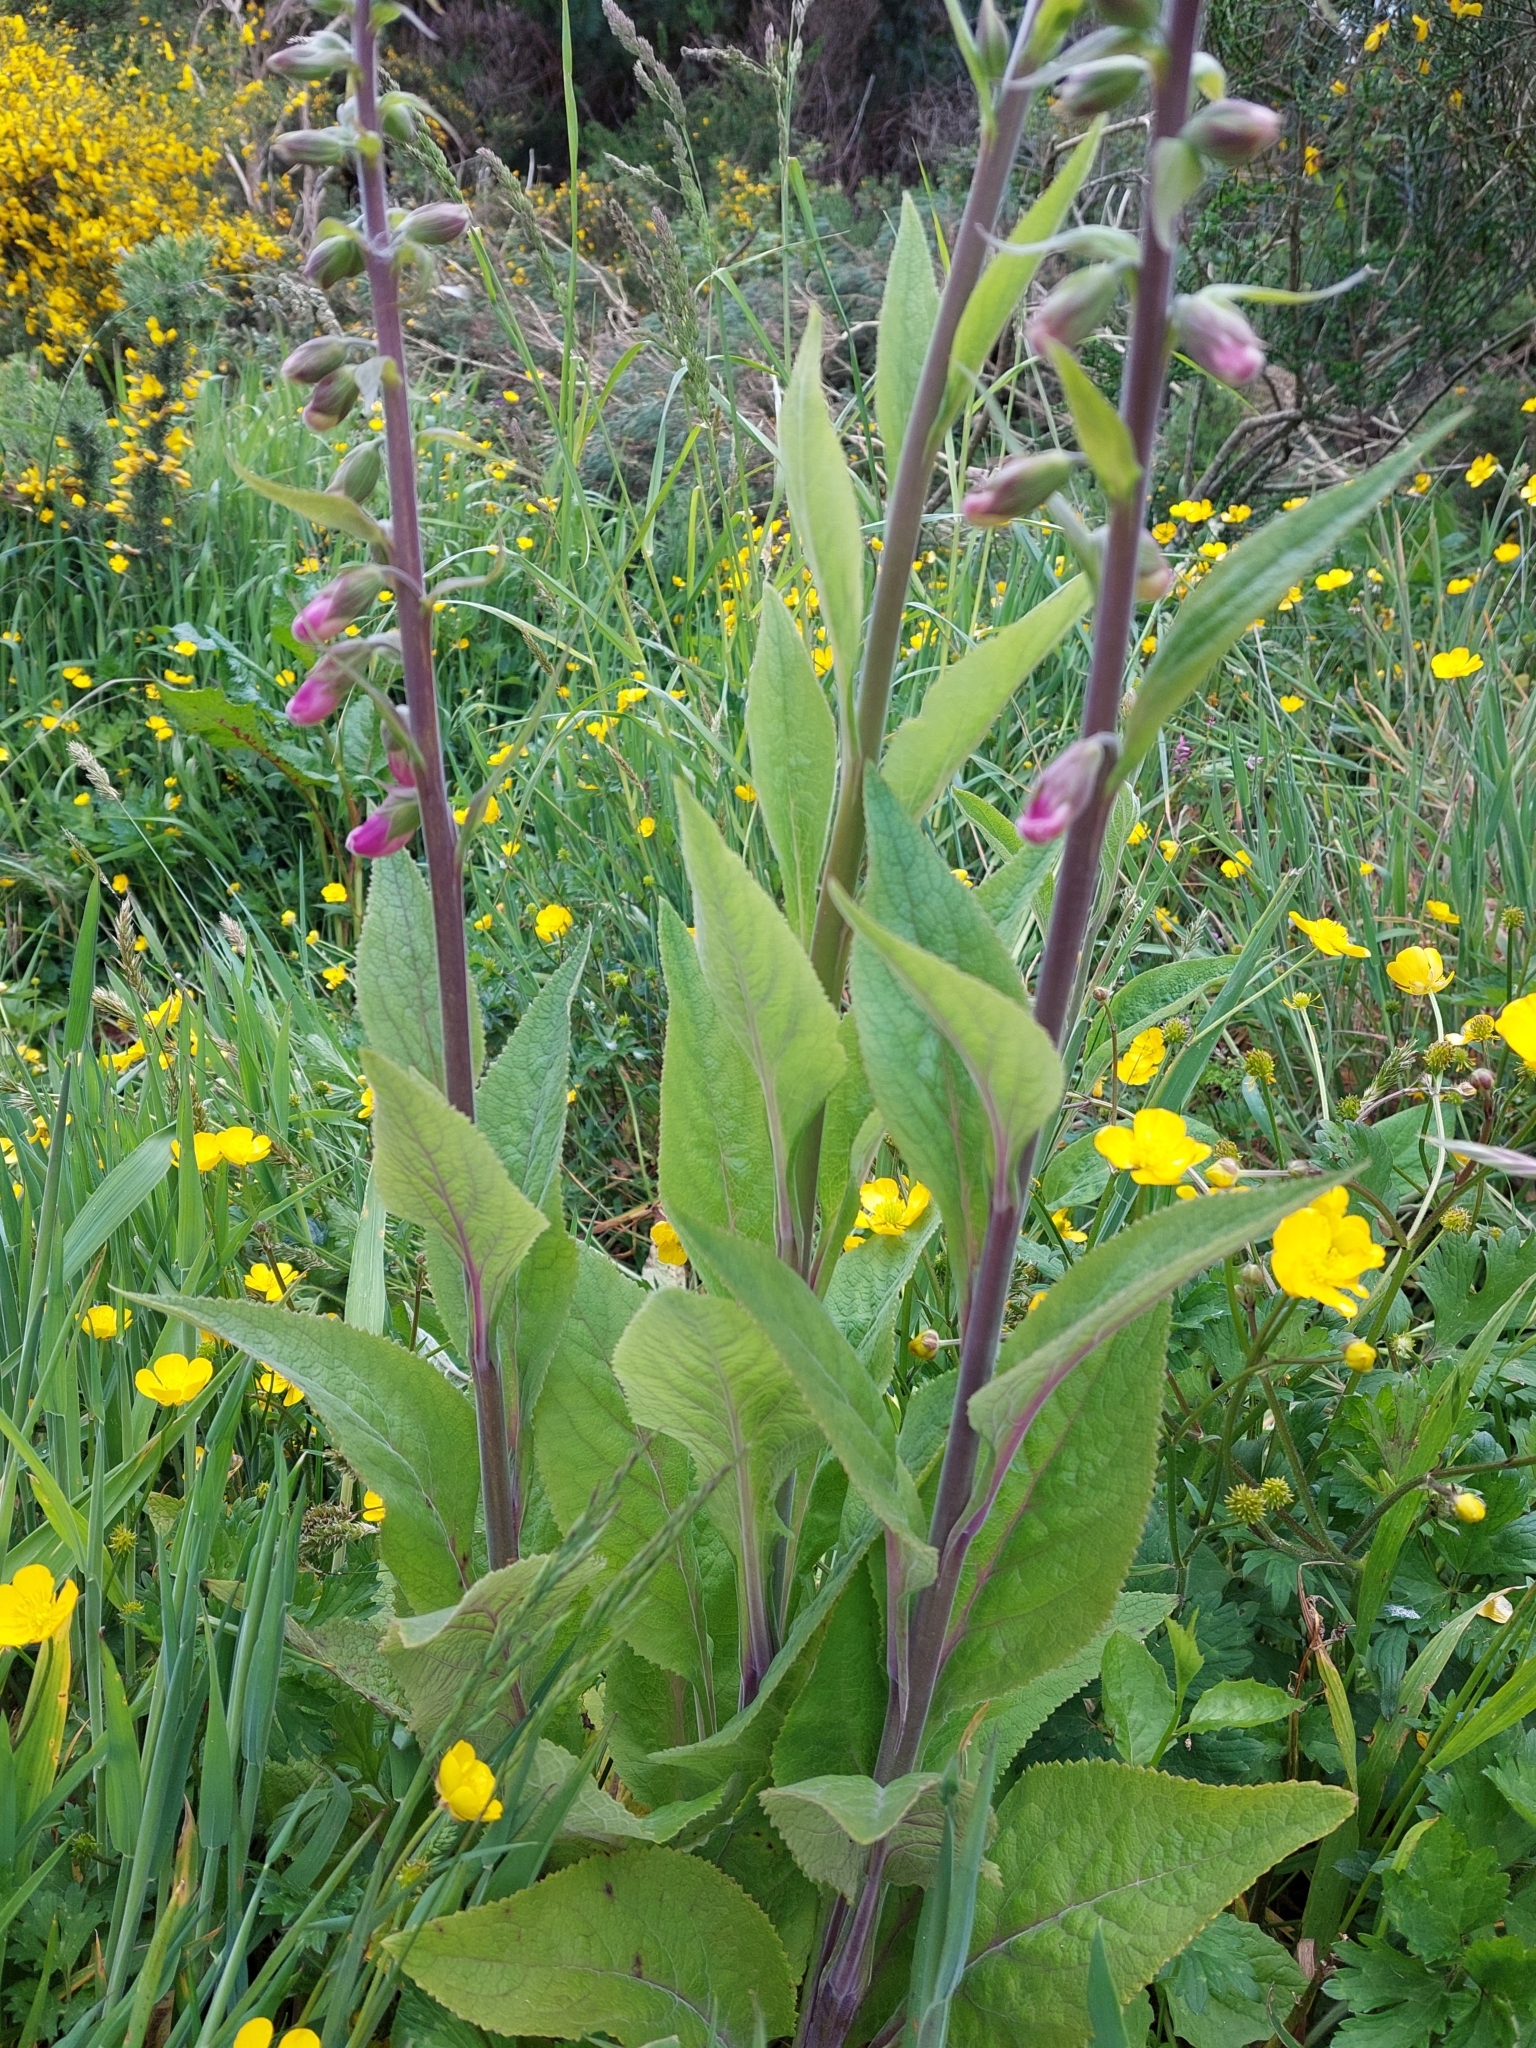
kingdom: Plantae
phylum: Tracheophyta
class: Magnoliopsida
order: Lamiales
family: Plantaginaceae
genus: Digitalis
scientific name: Digitalis purpurea
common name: Foxglove
